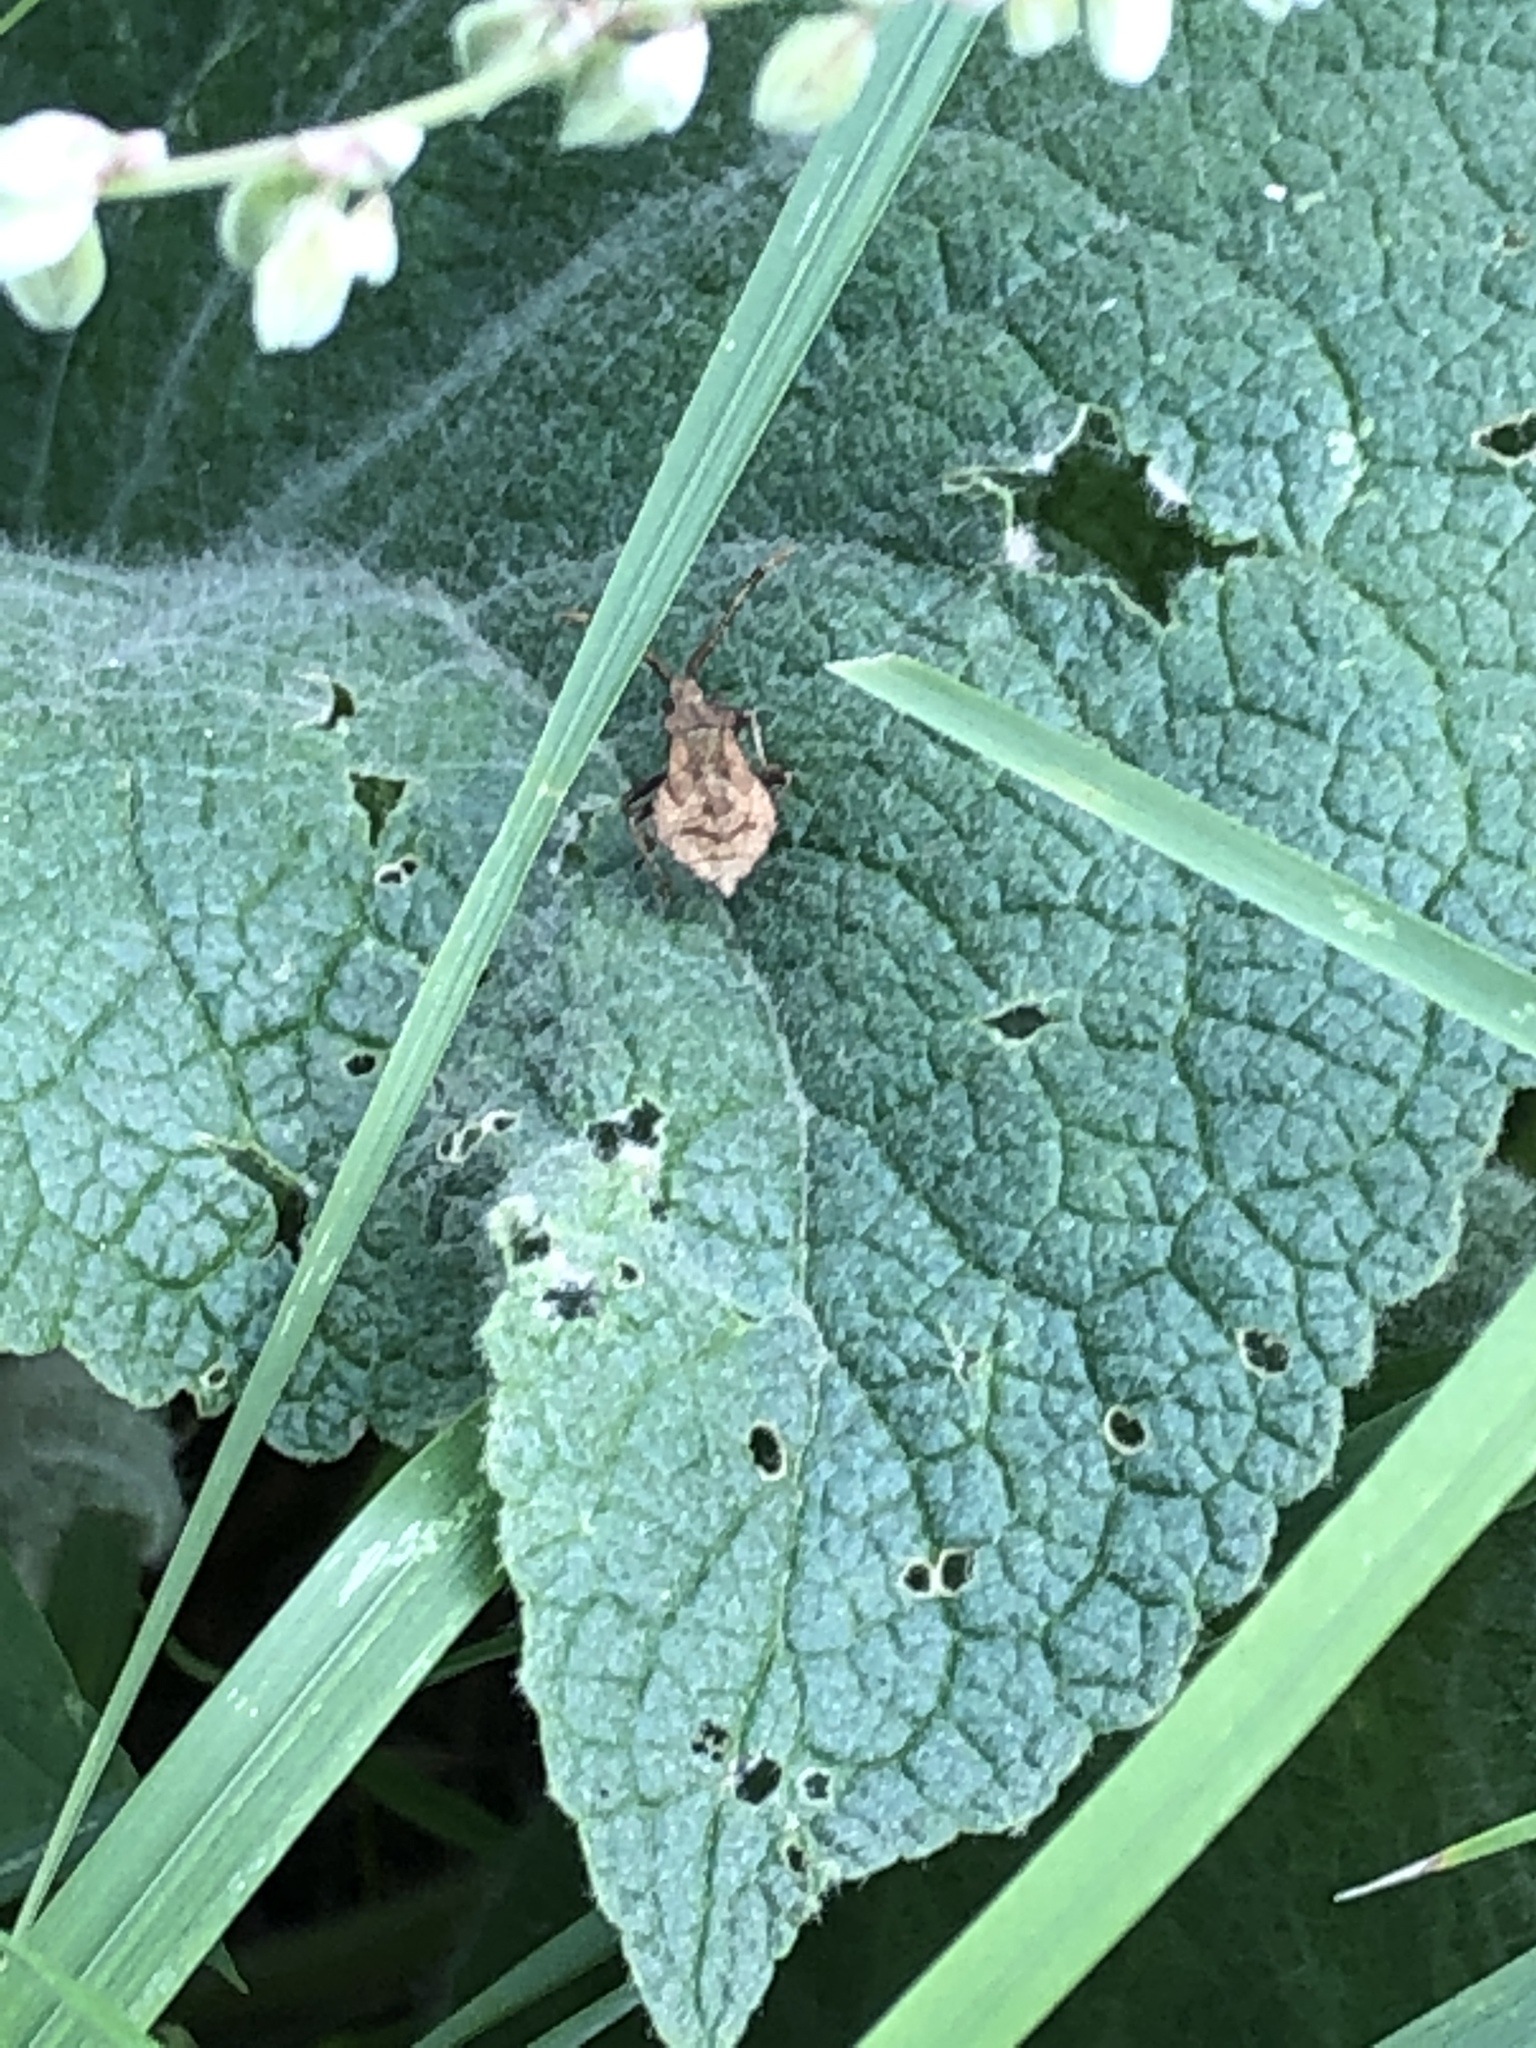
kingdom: Animalia
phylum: Arthropoda
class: Insecta
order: Hemiptera
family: Coreidae
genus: Coreus
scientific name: Coreus marginatus
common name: Dock bug
